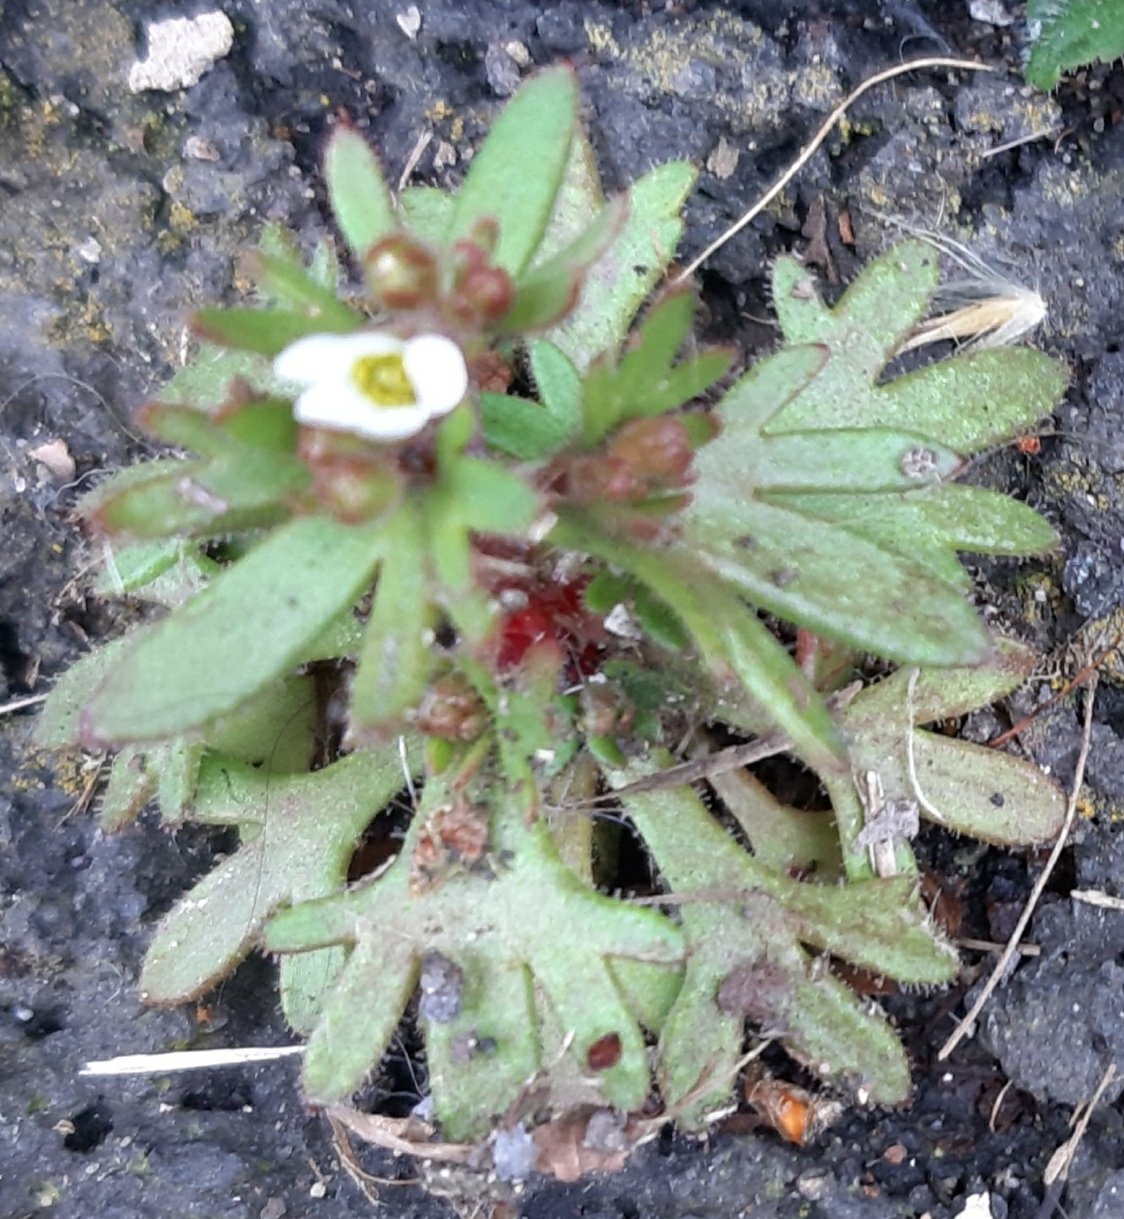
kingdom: Plantae
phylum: Tracheophyta
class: Magnoliopsida
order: Saxifragales
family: Saxifragaceae
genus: Saxifraga
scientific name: Saxifraga tridactylites
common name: Rue-leaved saxifrage
